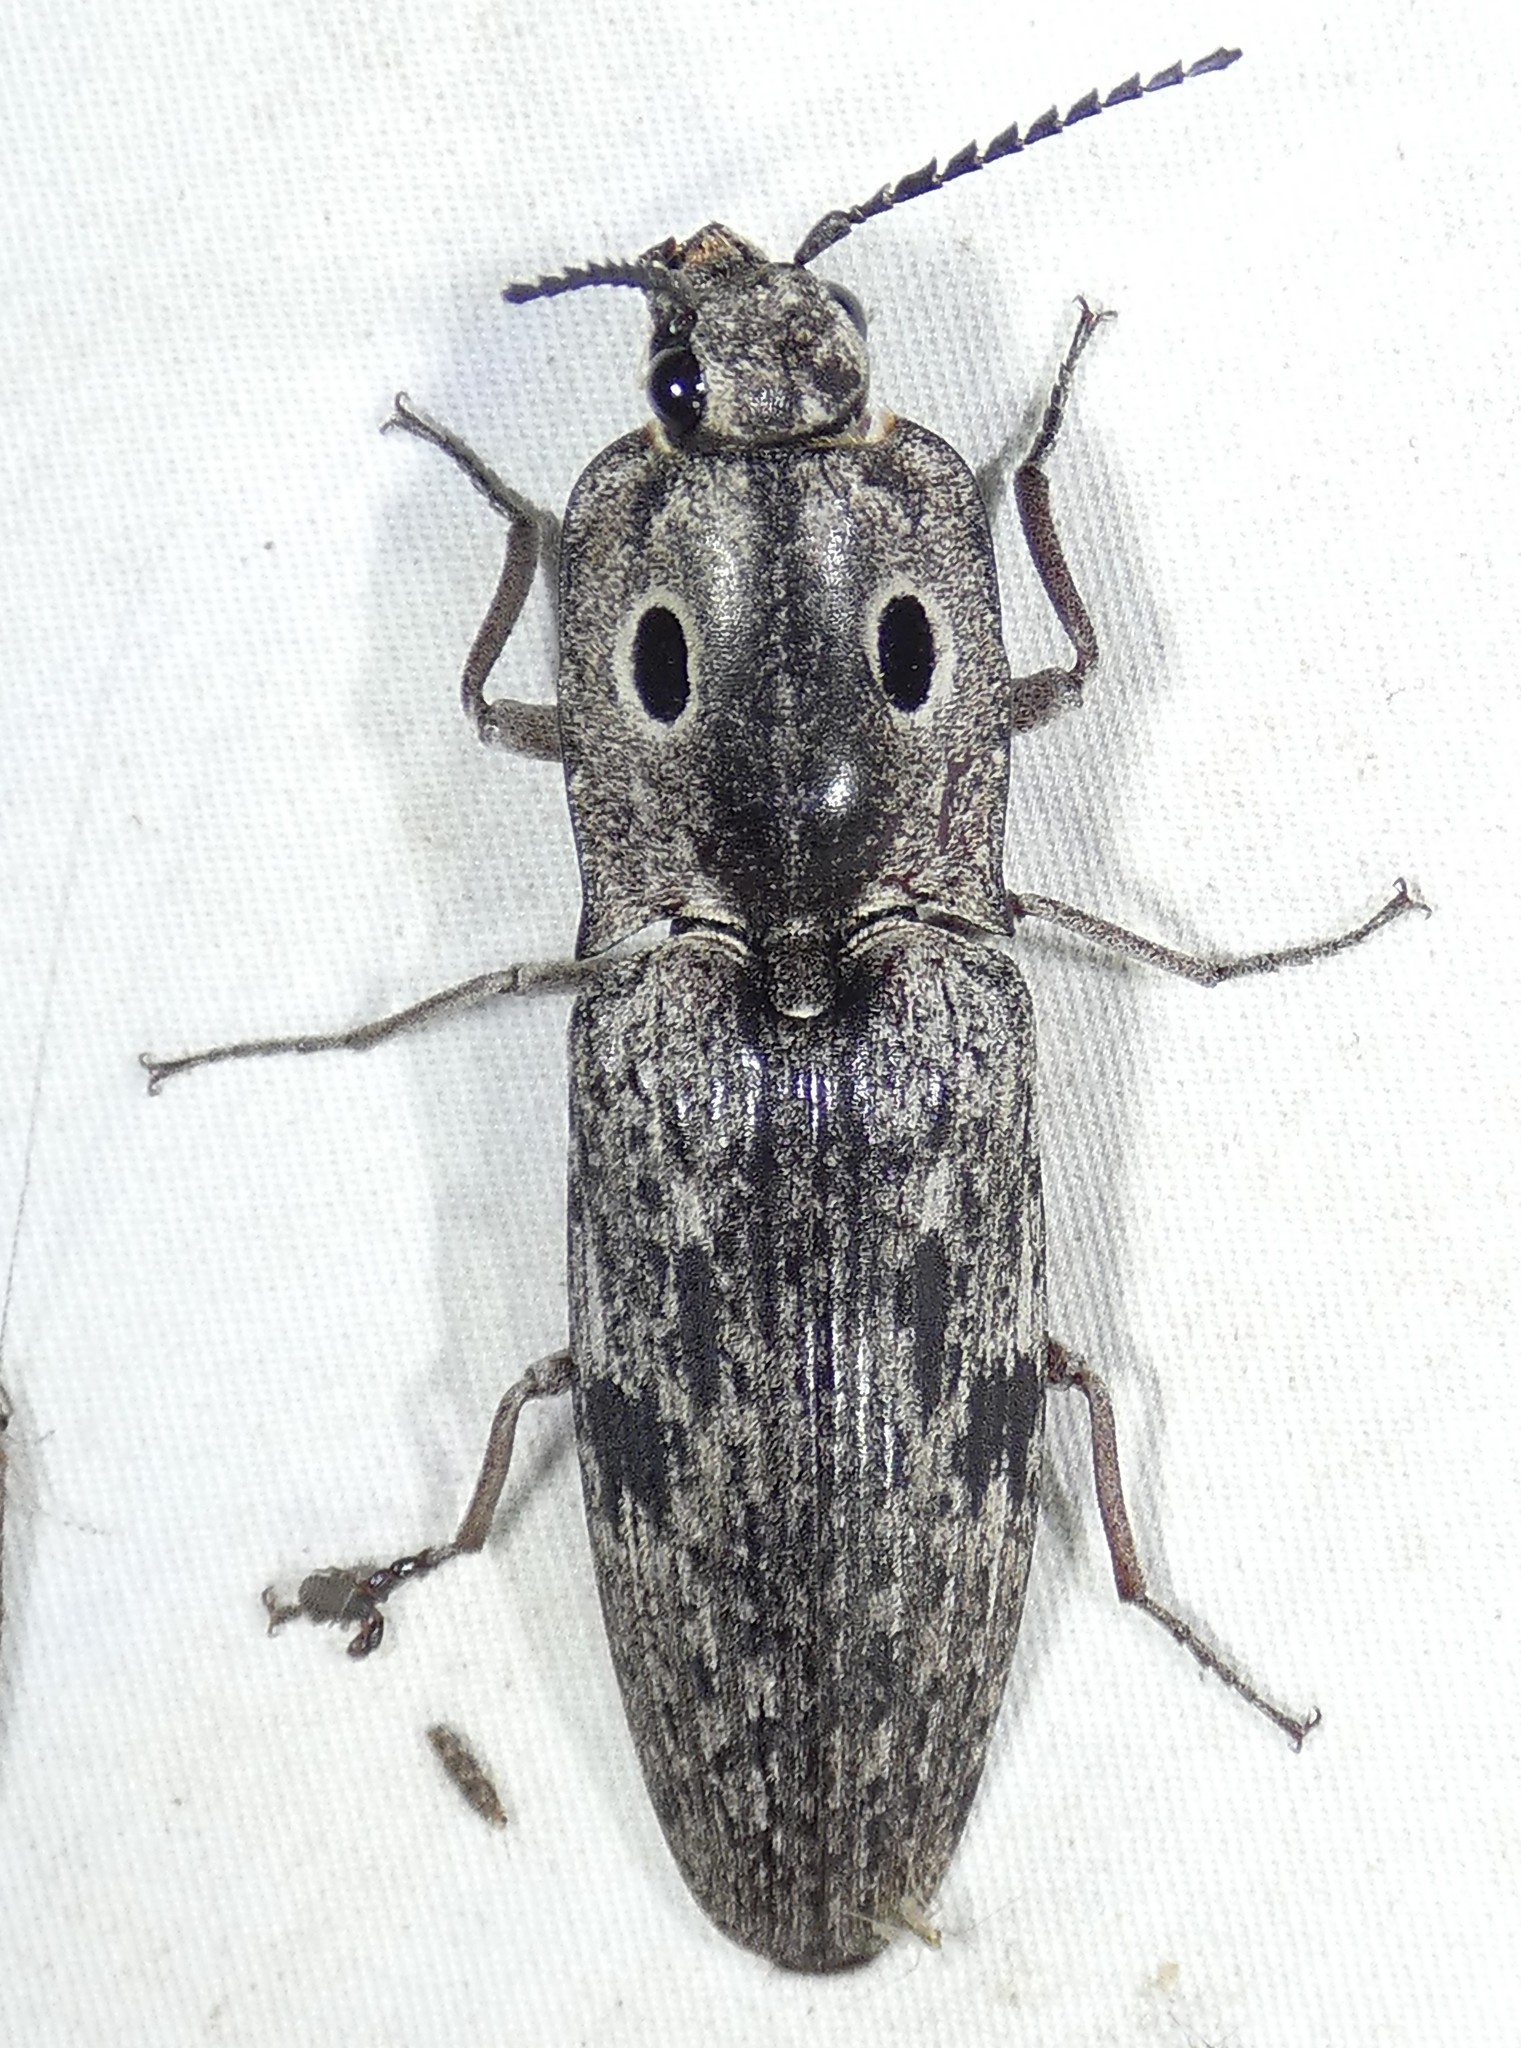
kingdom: Animalia
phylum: Arthropoda
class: Insecta
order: Coleoptera
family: Elateridae
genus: Alaus
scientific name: Alaus myops
